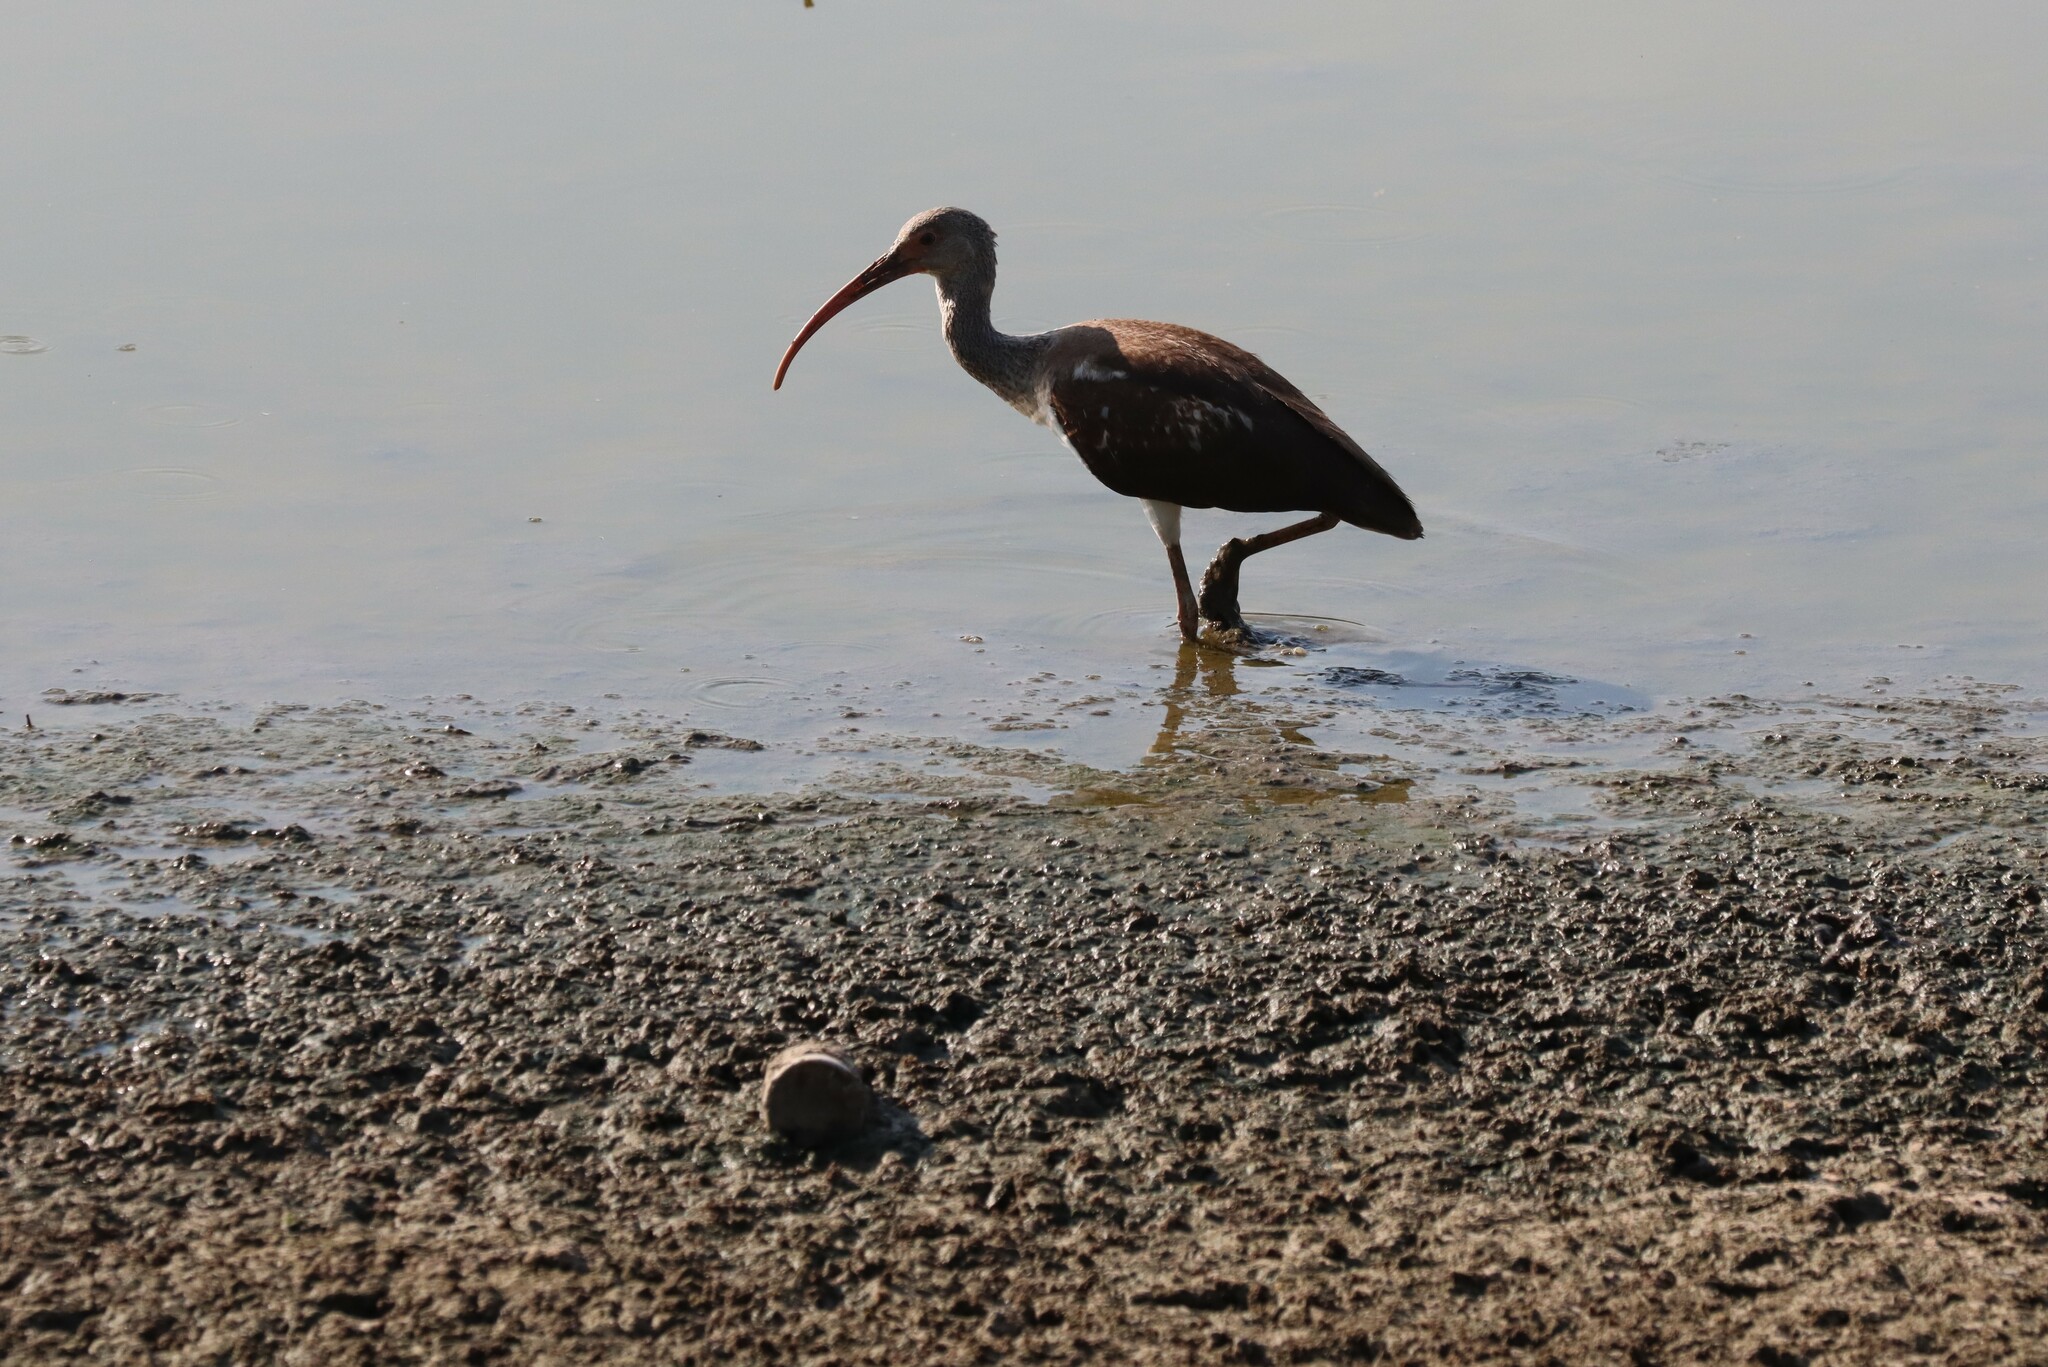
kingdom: Animalia
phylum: Chordata
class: Aves
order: Pelecaniformes
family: Threskiornithidae
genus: Eudocimus
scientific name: Eudocimus albus
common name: White ibis
